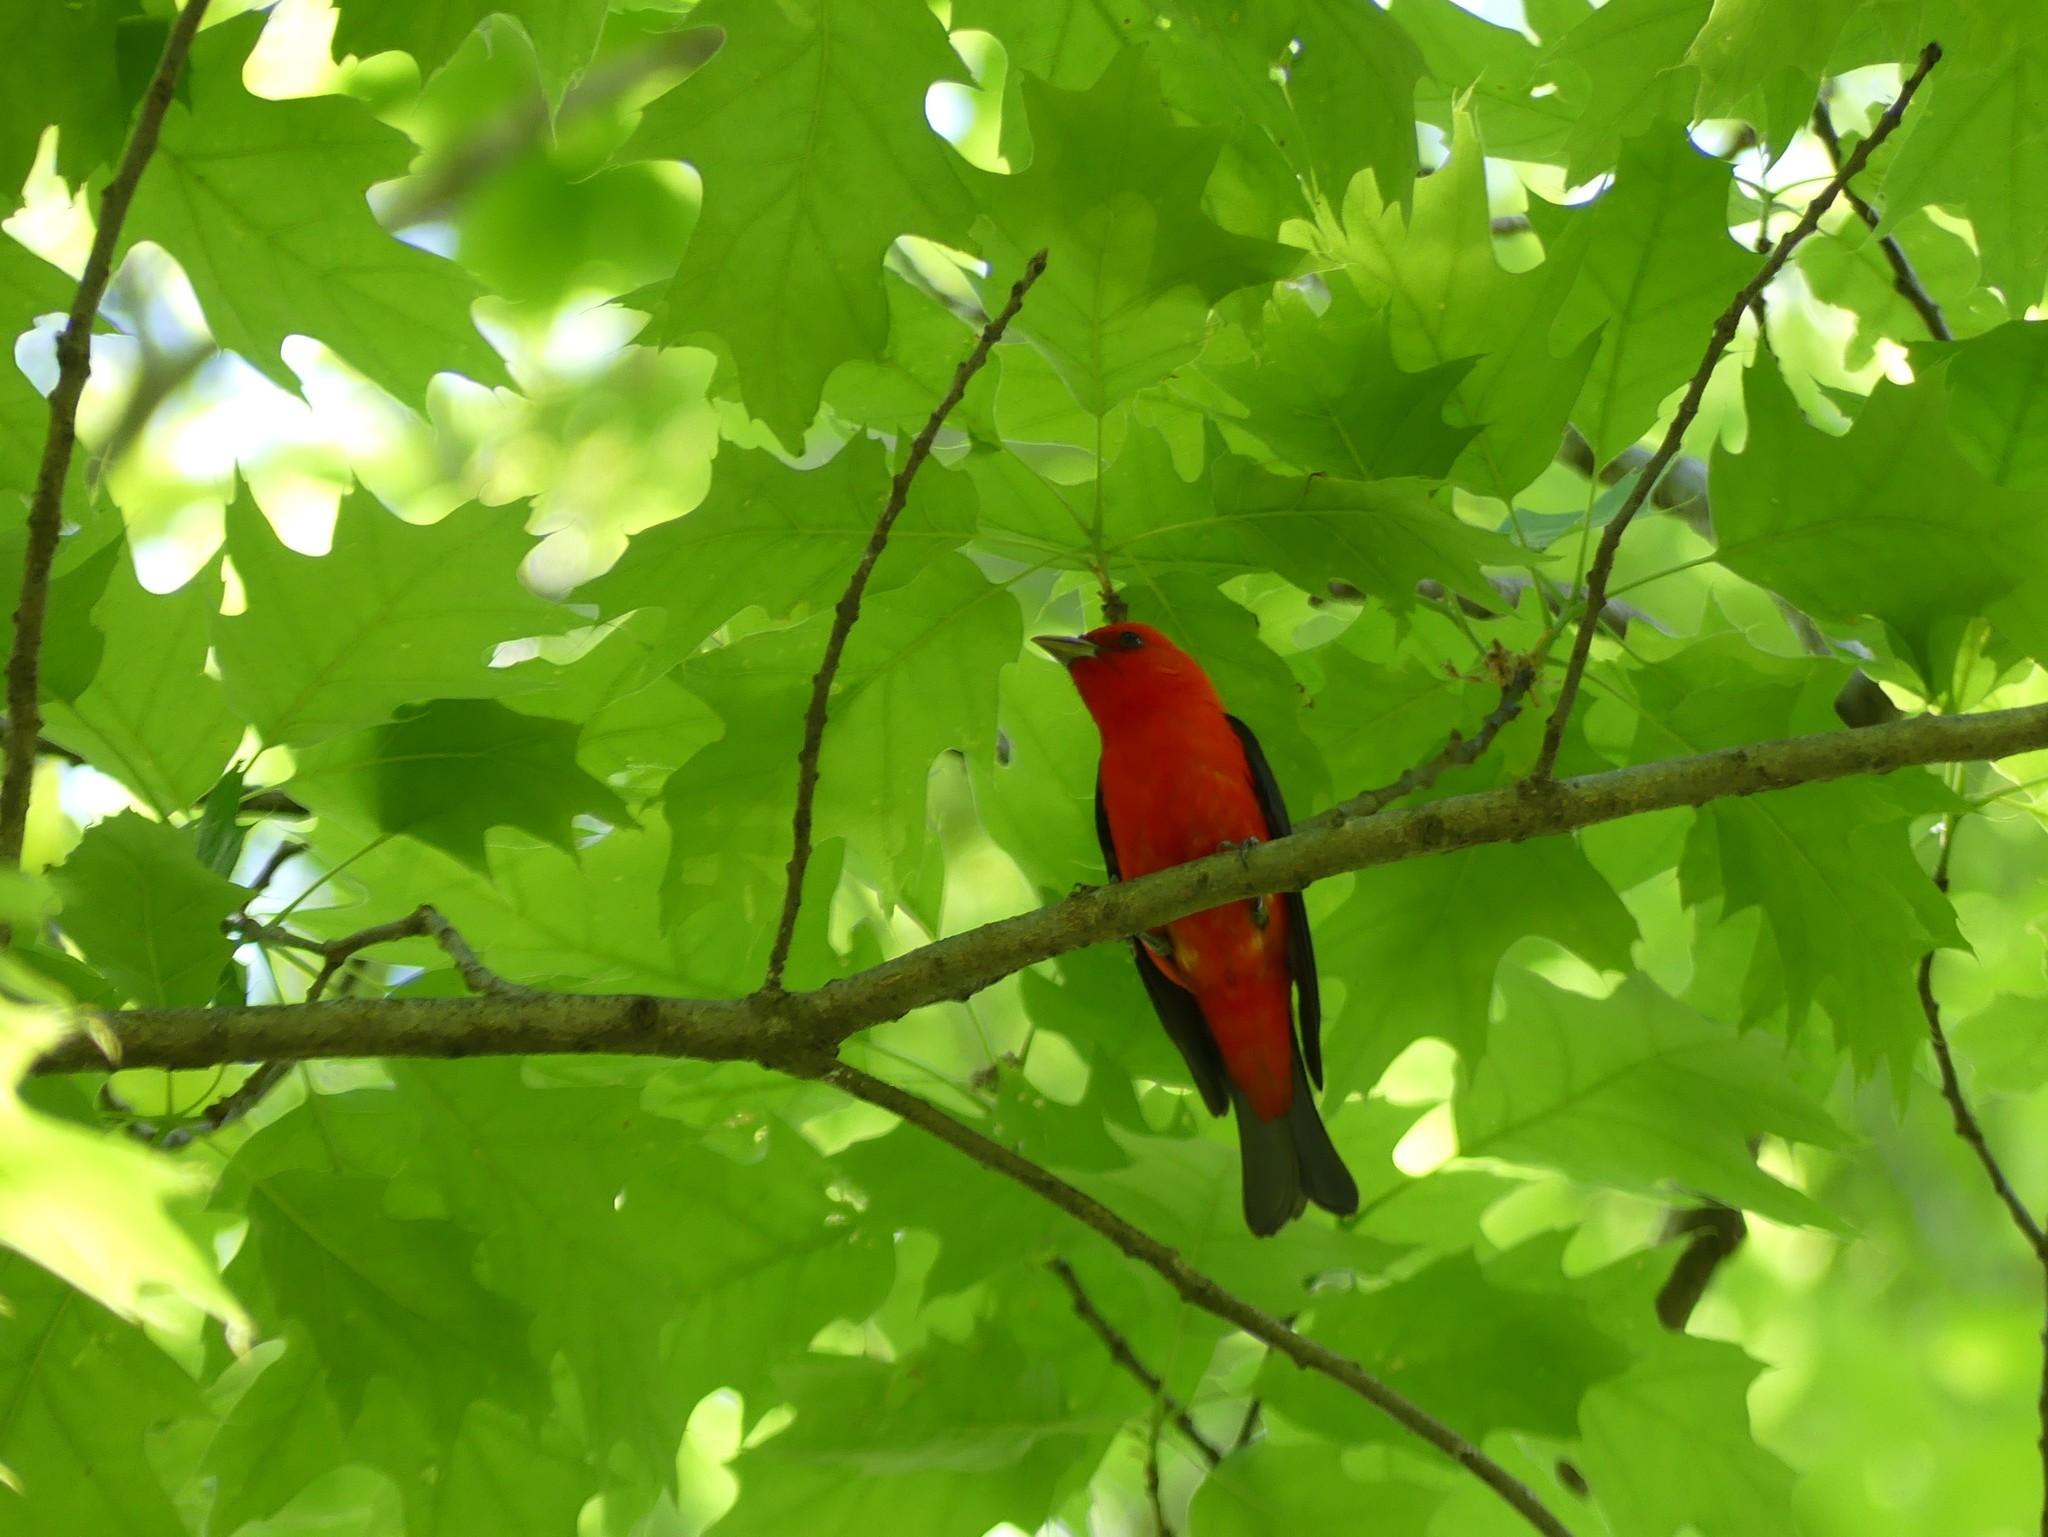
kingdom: Animalia
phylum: Chordata
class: Aves
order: Passeriformes
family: Cardinalidae
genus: Piranga
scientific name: Piranga olivacea
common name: Scarlet tanager
